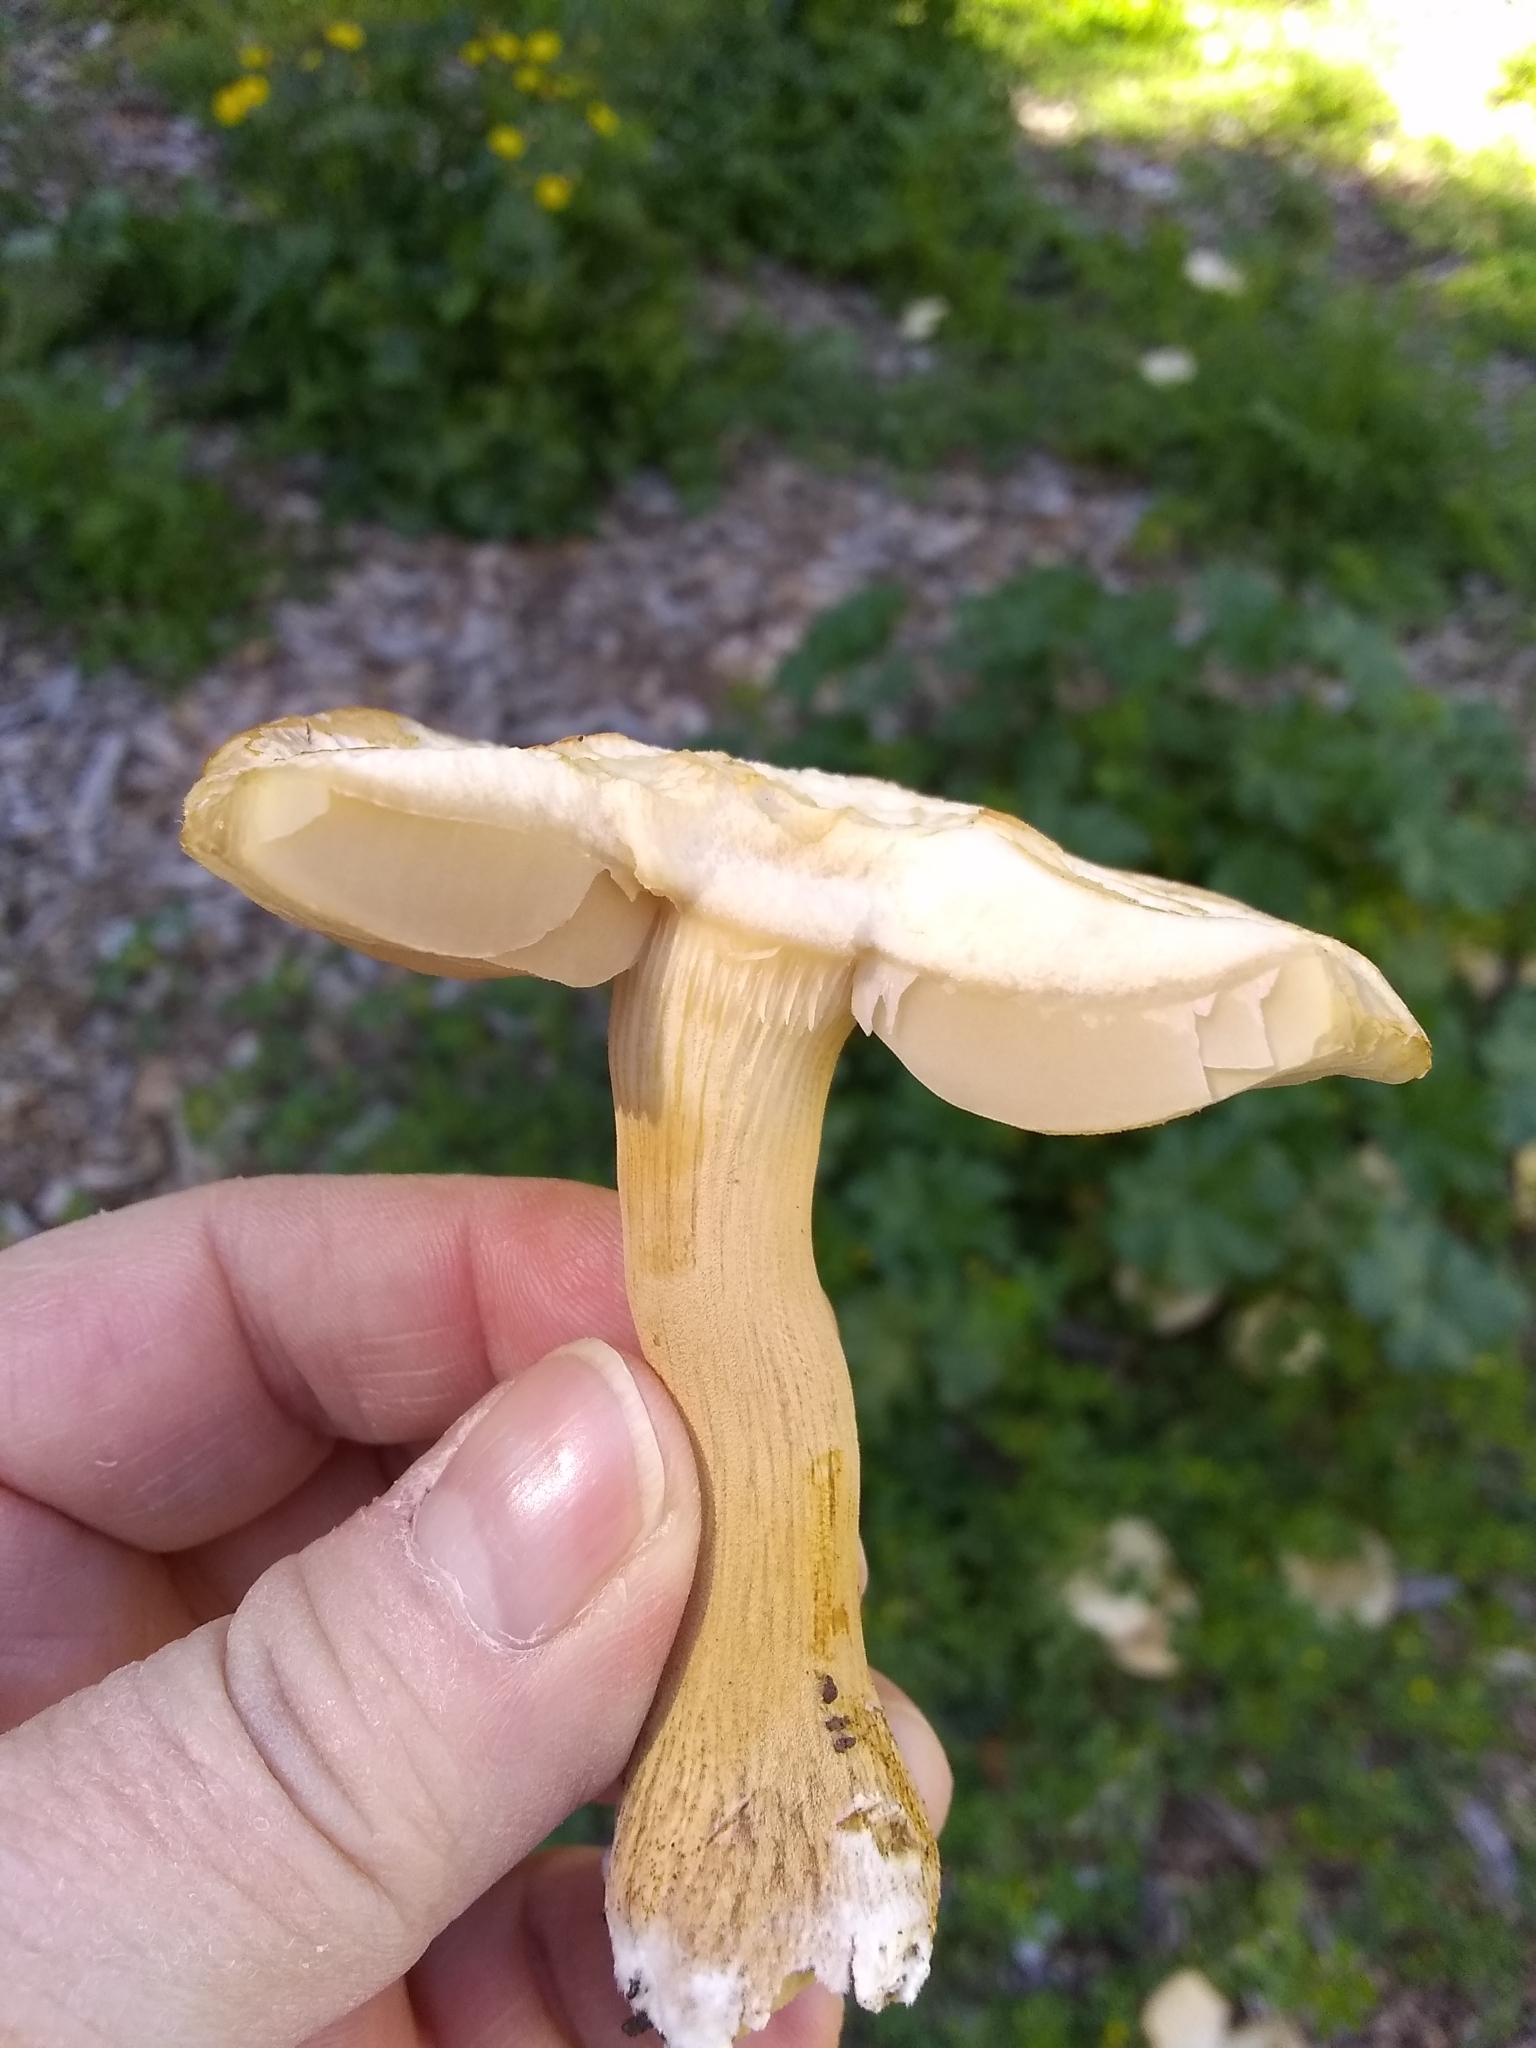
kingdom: Fungi
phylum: Basidiomycota
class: Agaricomycetes
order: Agaricales
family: Strophariaceae
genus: Agrocybe
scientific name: Agrocybe putaminum
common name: Mulch fieldcap
